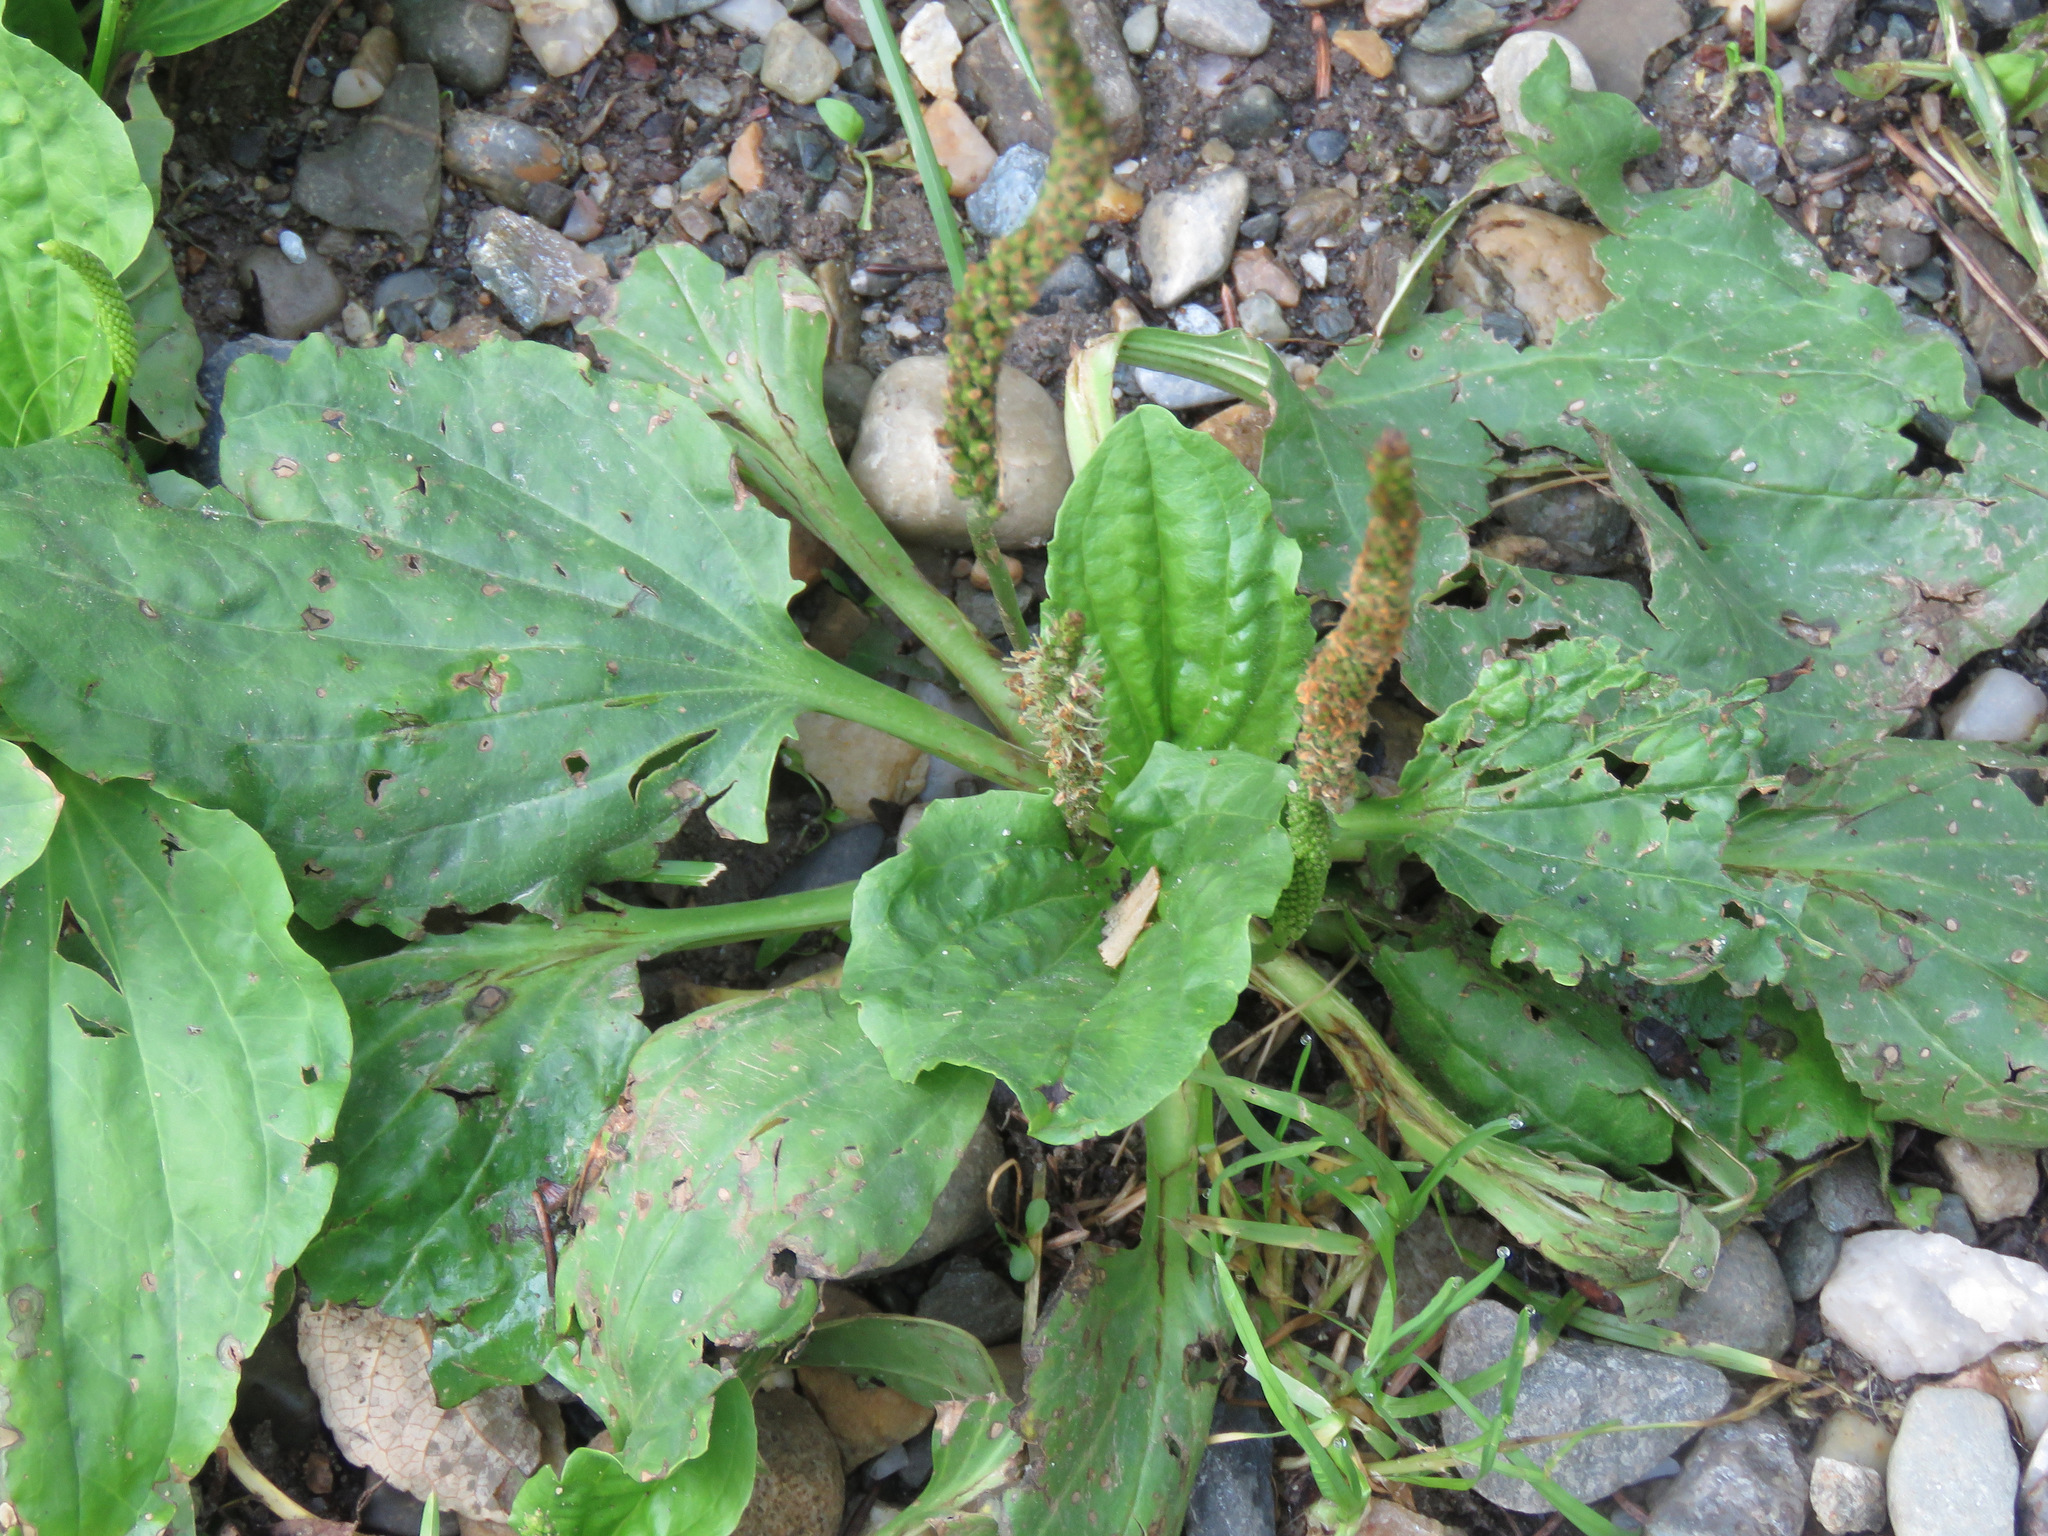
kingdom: Plantae
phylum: Tracheophyta
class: Magnoliopsida
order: Lamiales
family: Plantaginaceae
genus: Plantago
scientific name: Plantago major
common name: Common plantain
